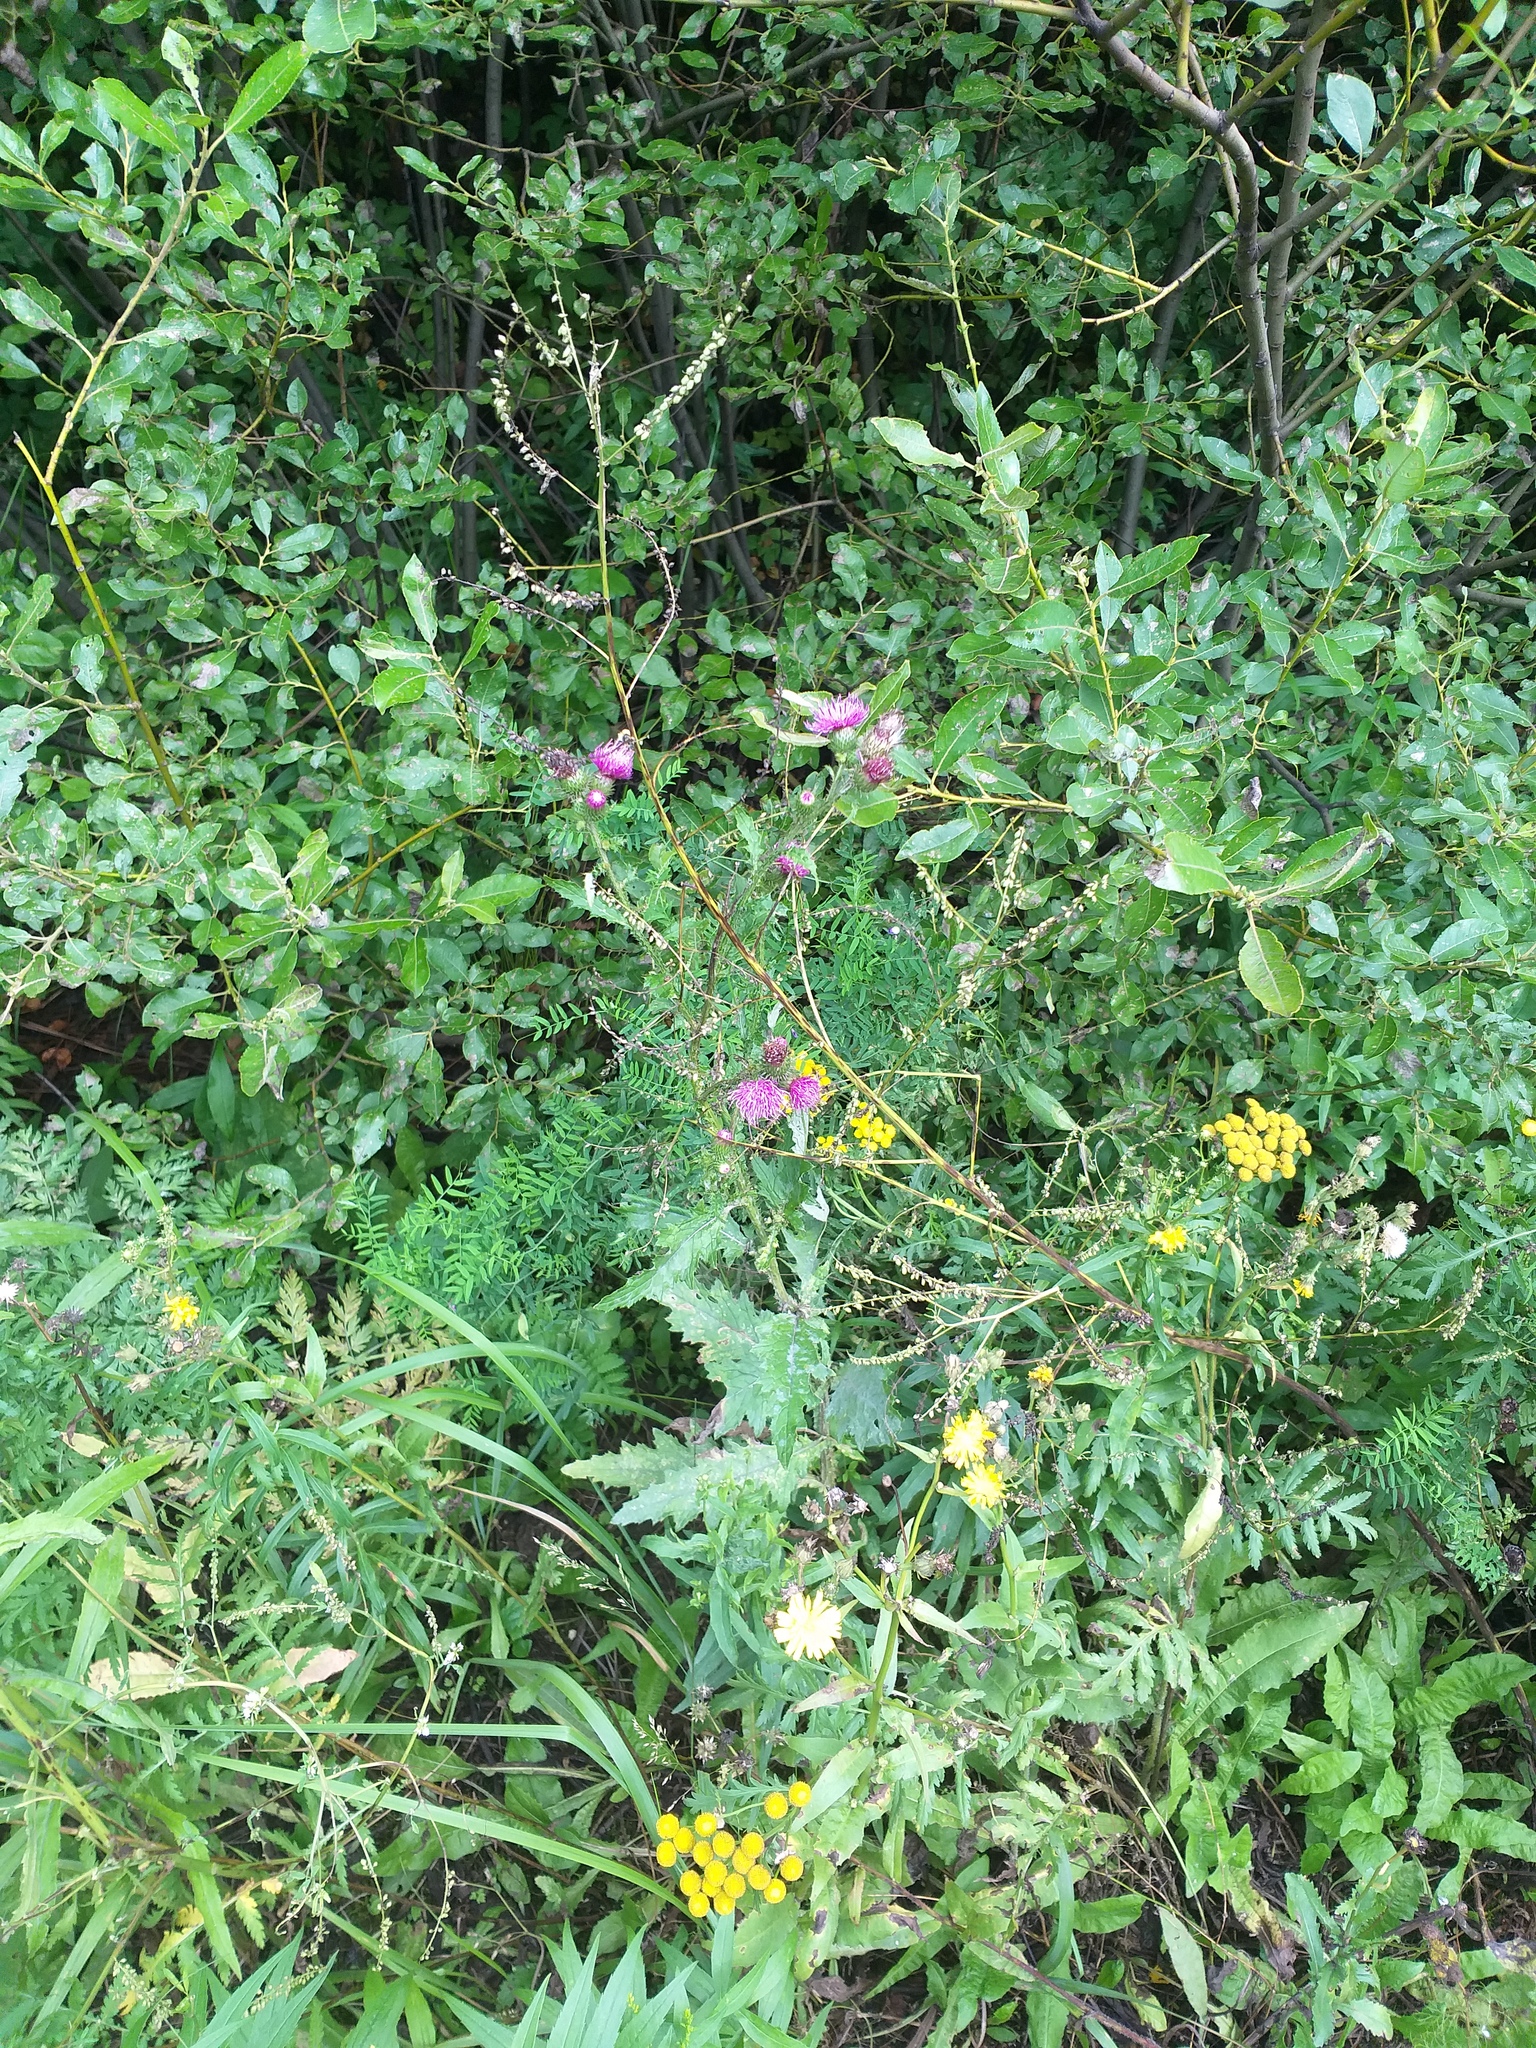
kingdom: Plantae
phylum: Tracheophyta
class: Magnoliopsida
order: Asterales
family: Asteraceae
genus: Carduus
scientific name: Carduus crispus
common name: Welted thistle
